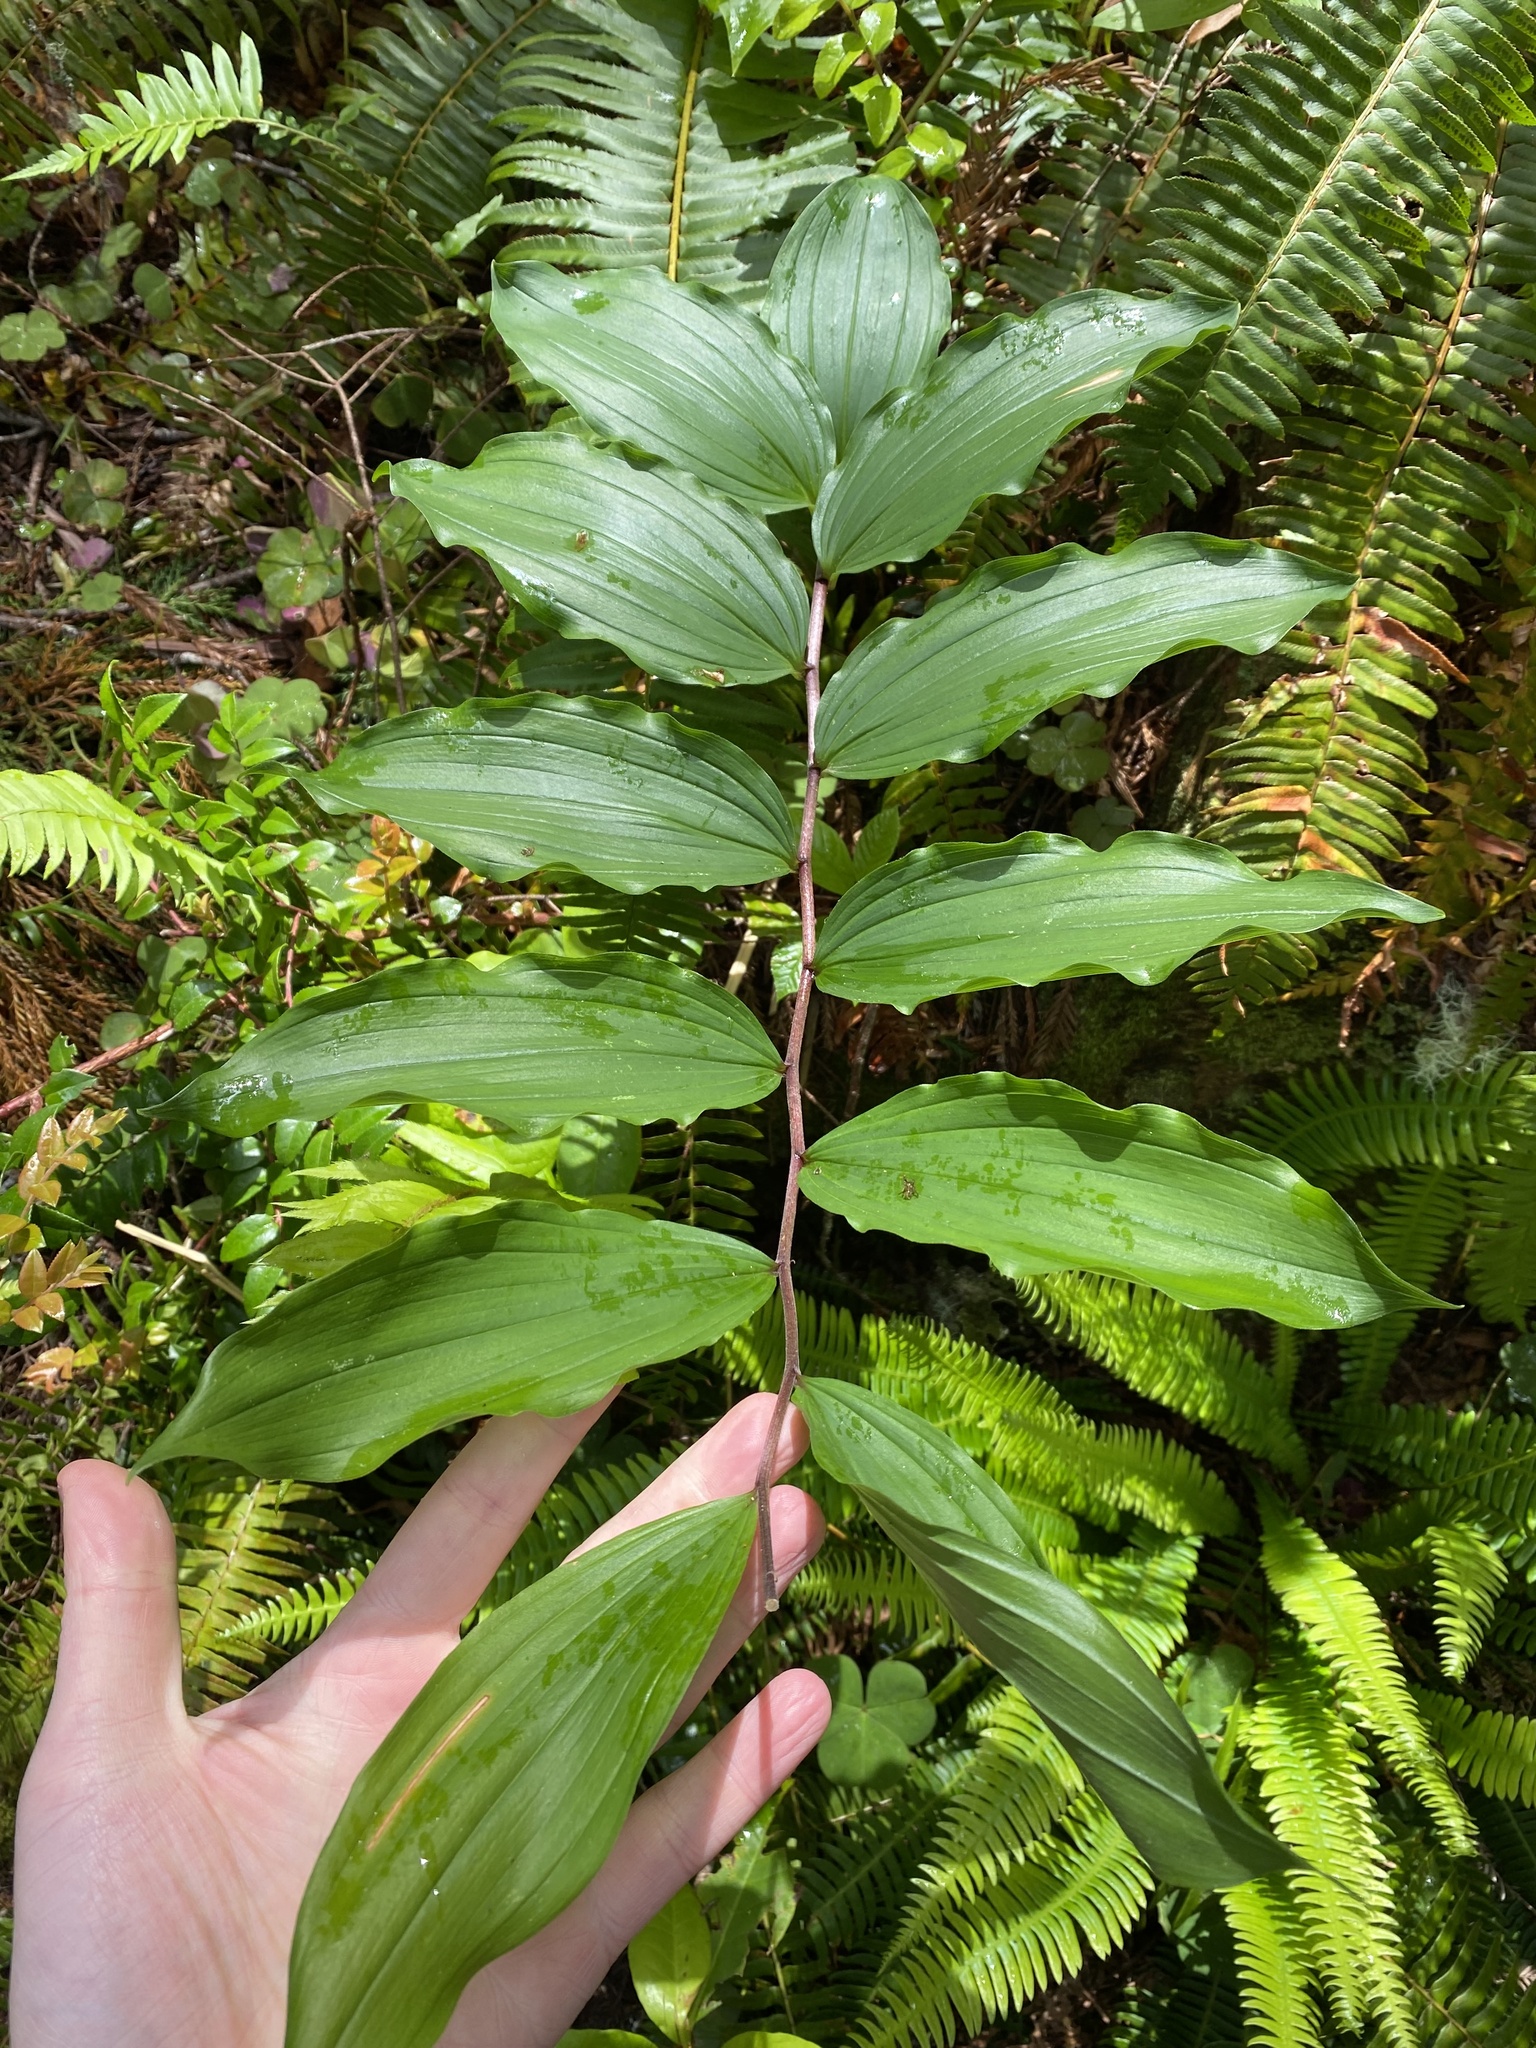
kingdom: Plantae
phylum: Tracheophyta
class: Liliopsida
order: Asparagales
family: Asparagaceae
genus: Maianthemum
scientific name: Maianthemum racemosum
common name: False spikenard
